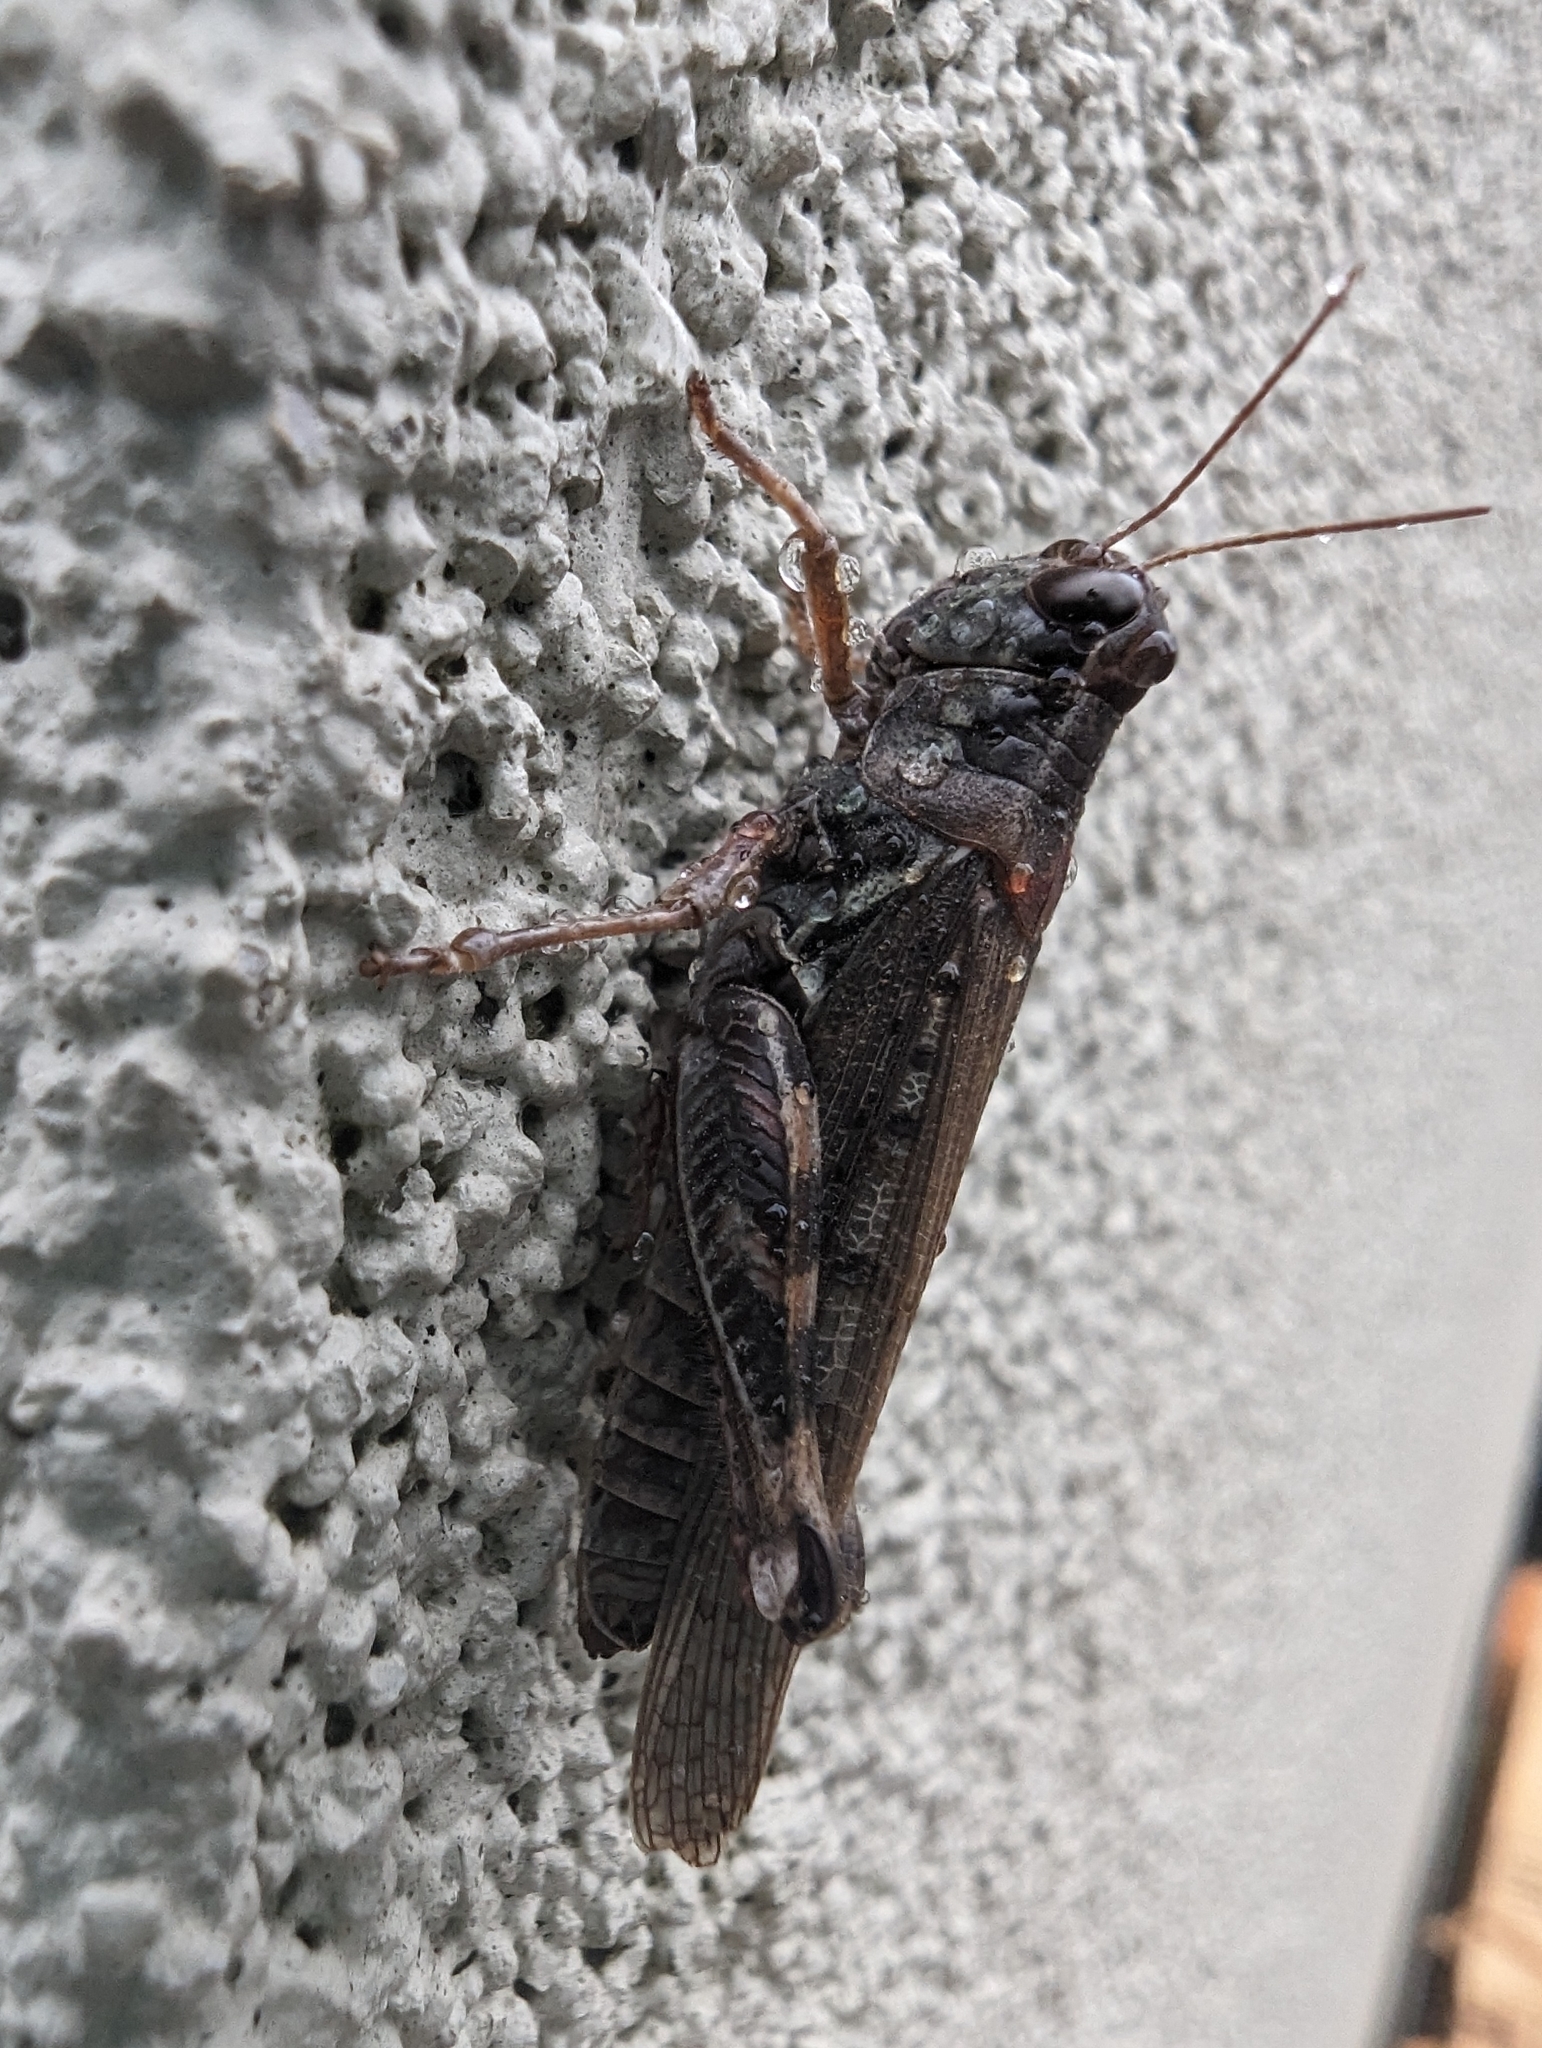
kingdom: Animalia
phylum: Arthropoda
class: Insecta
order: Orthoptera
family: Acrididae
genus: Melanoplus
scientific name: Melanoplus sanguinipes
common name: Migratory grasshopper
